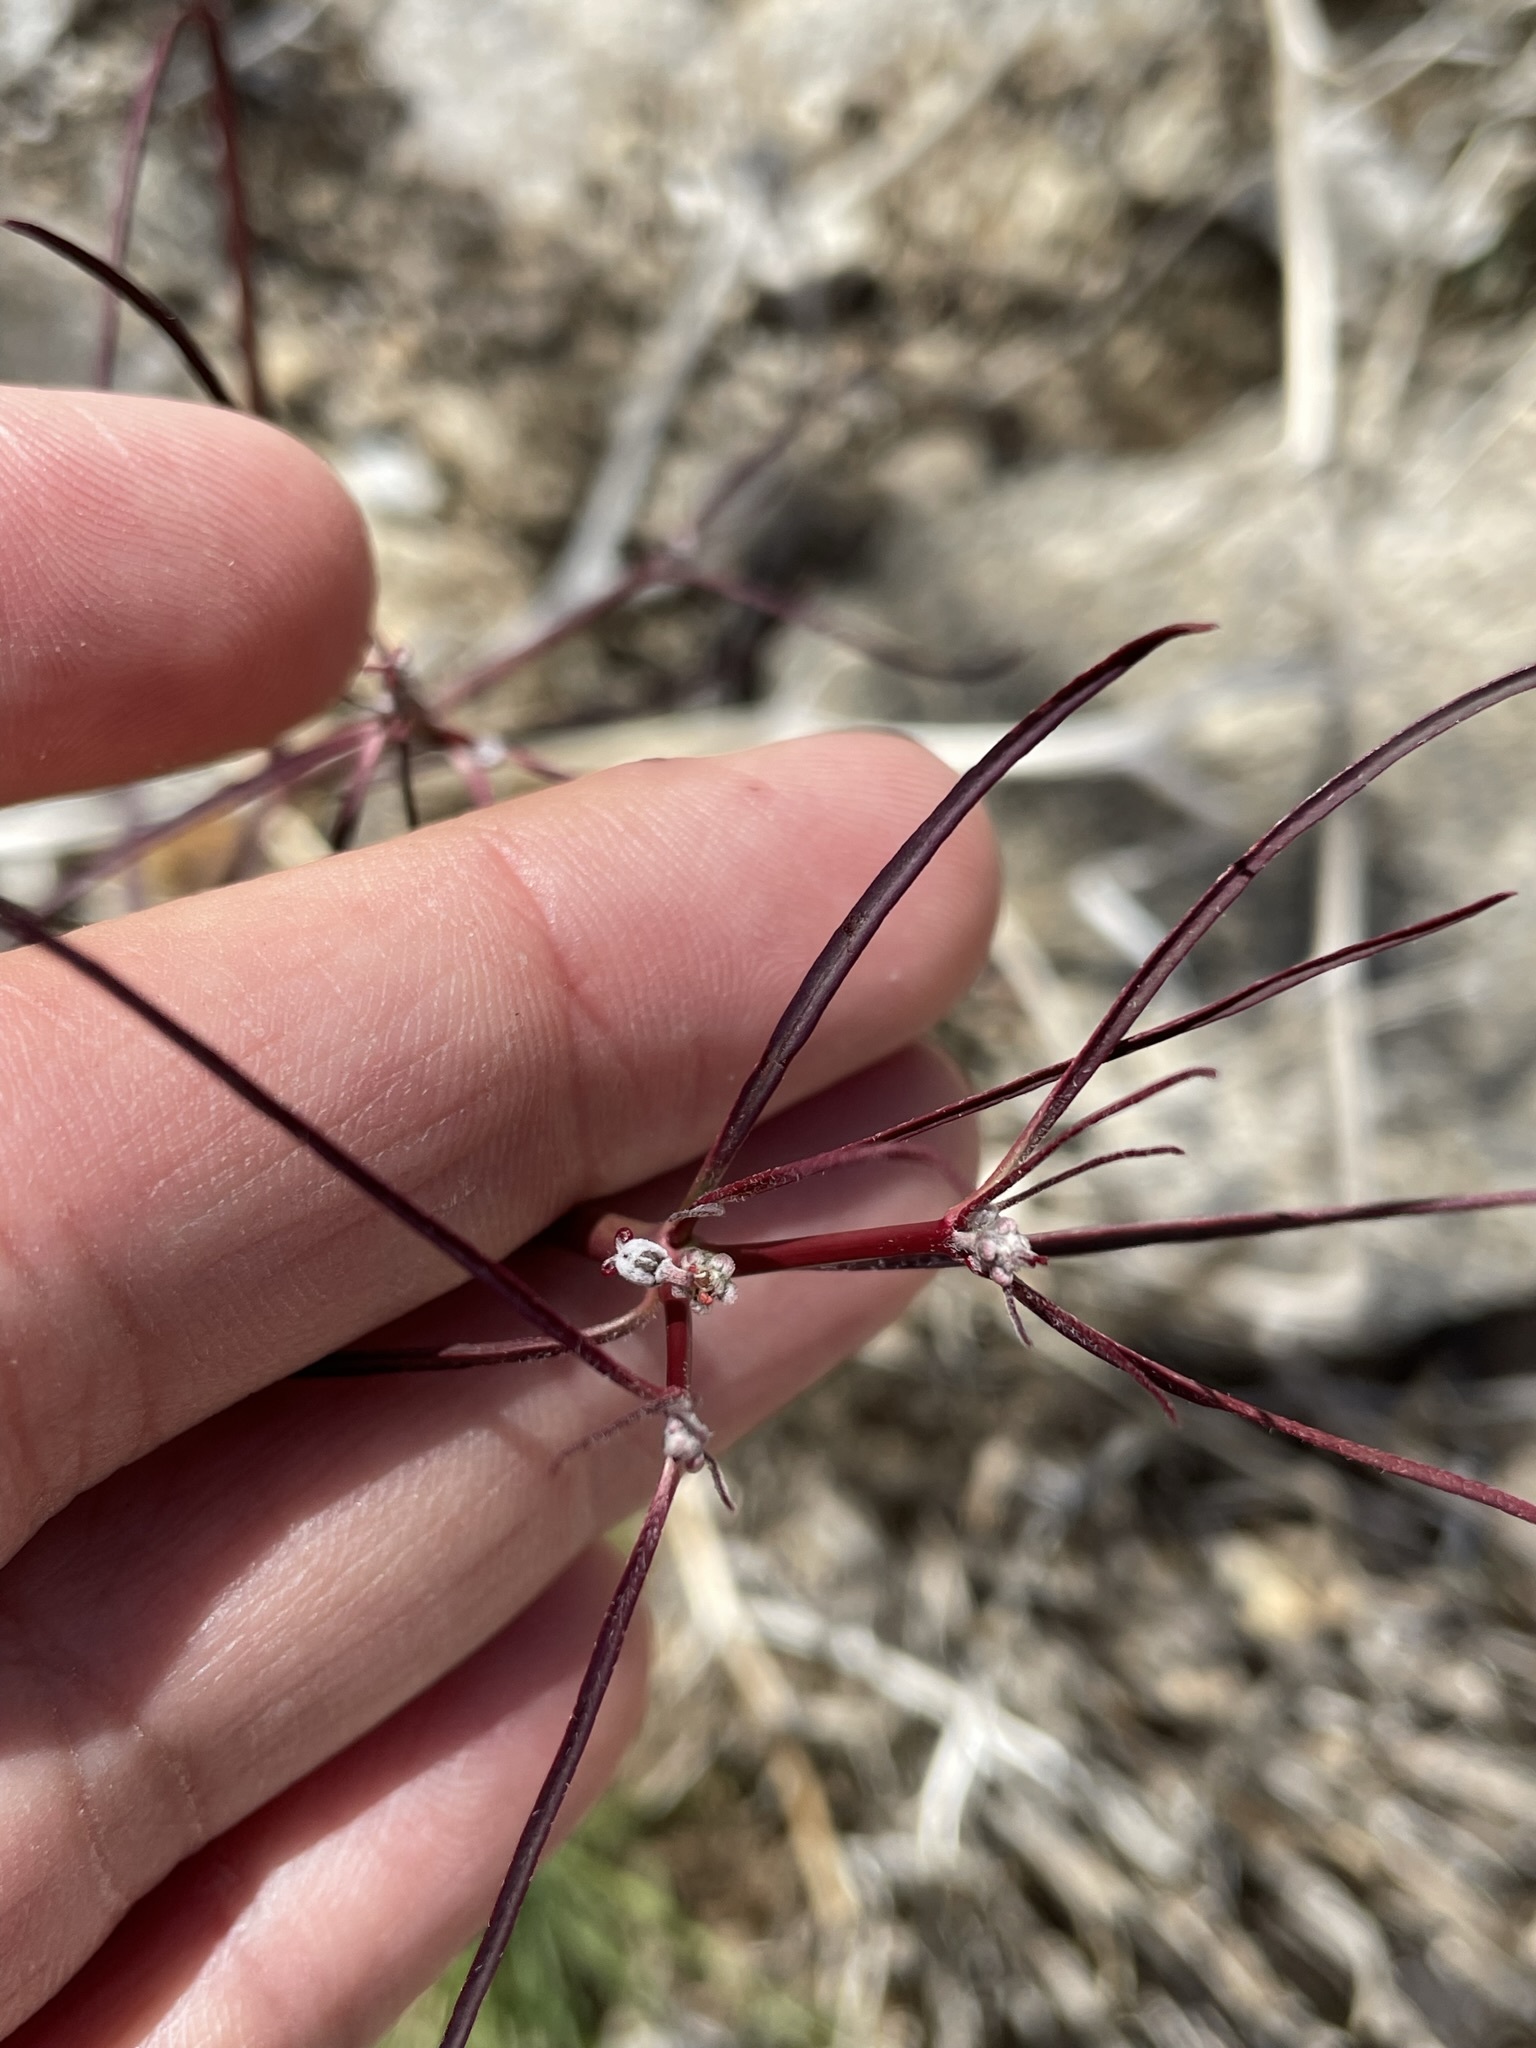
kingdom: Plantae
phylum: Tracheophyta
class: Magnoliopsida
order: Malpighiales
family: Euphorbiaceae
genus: Euphorbia
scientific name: Euphorbia eriantha
